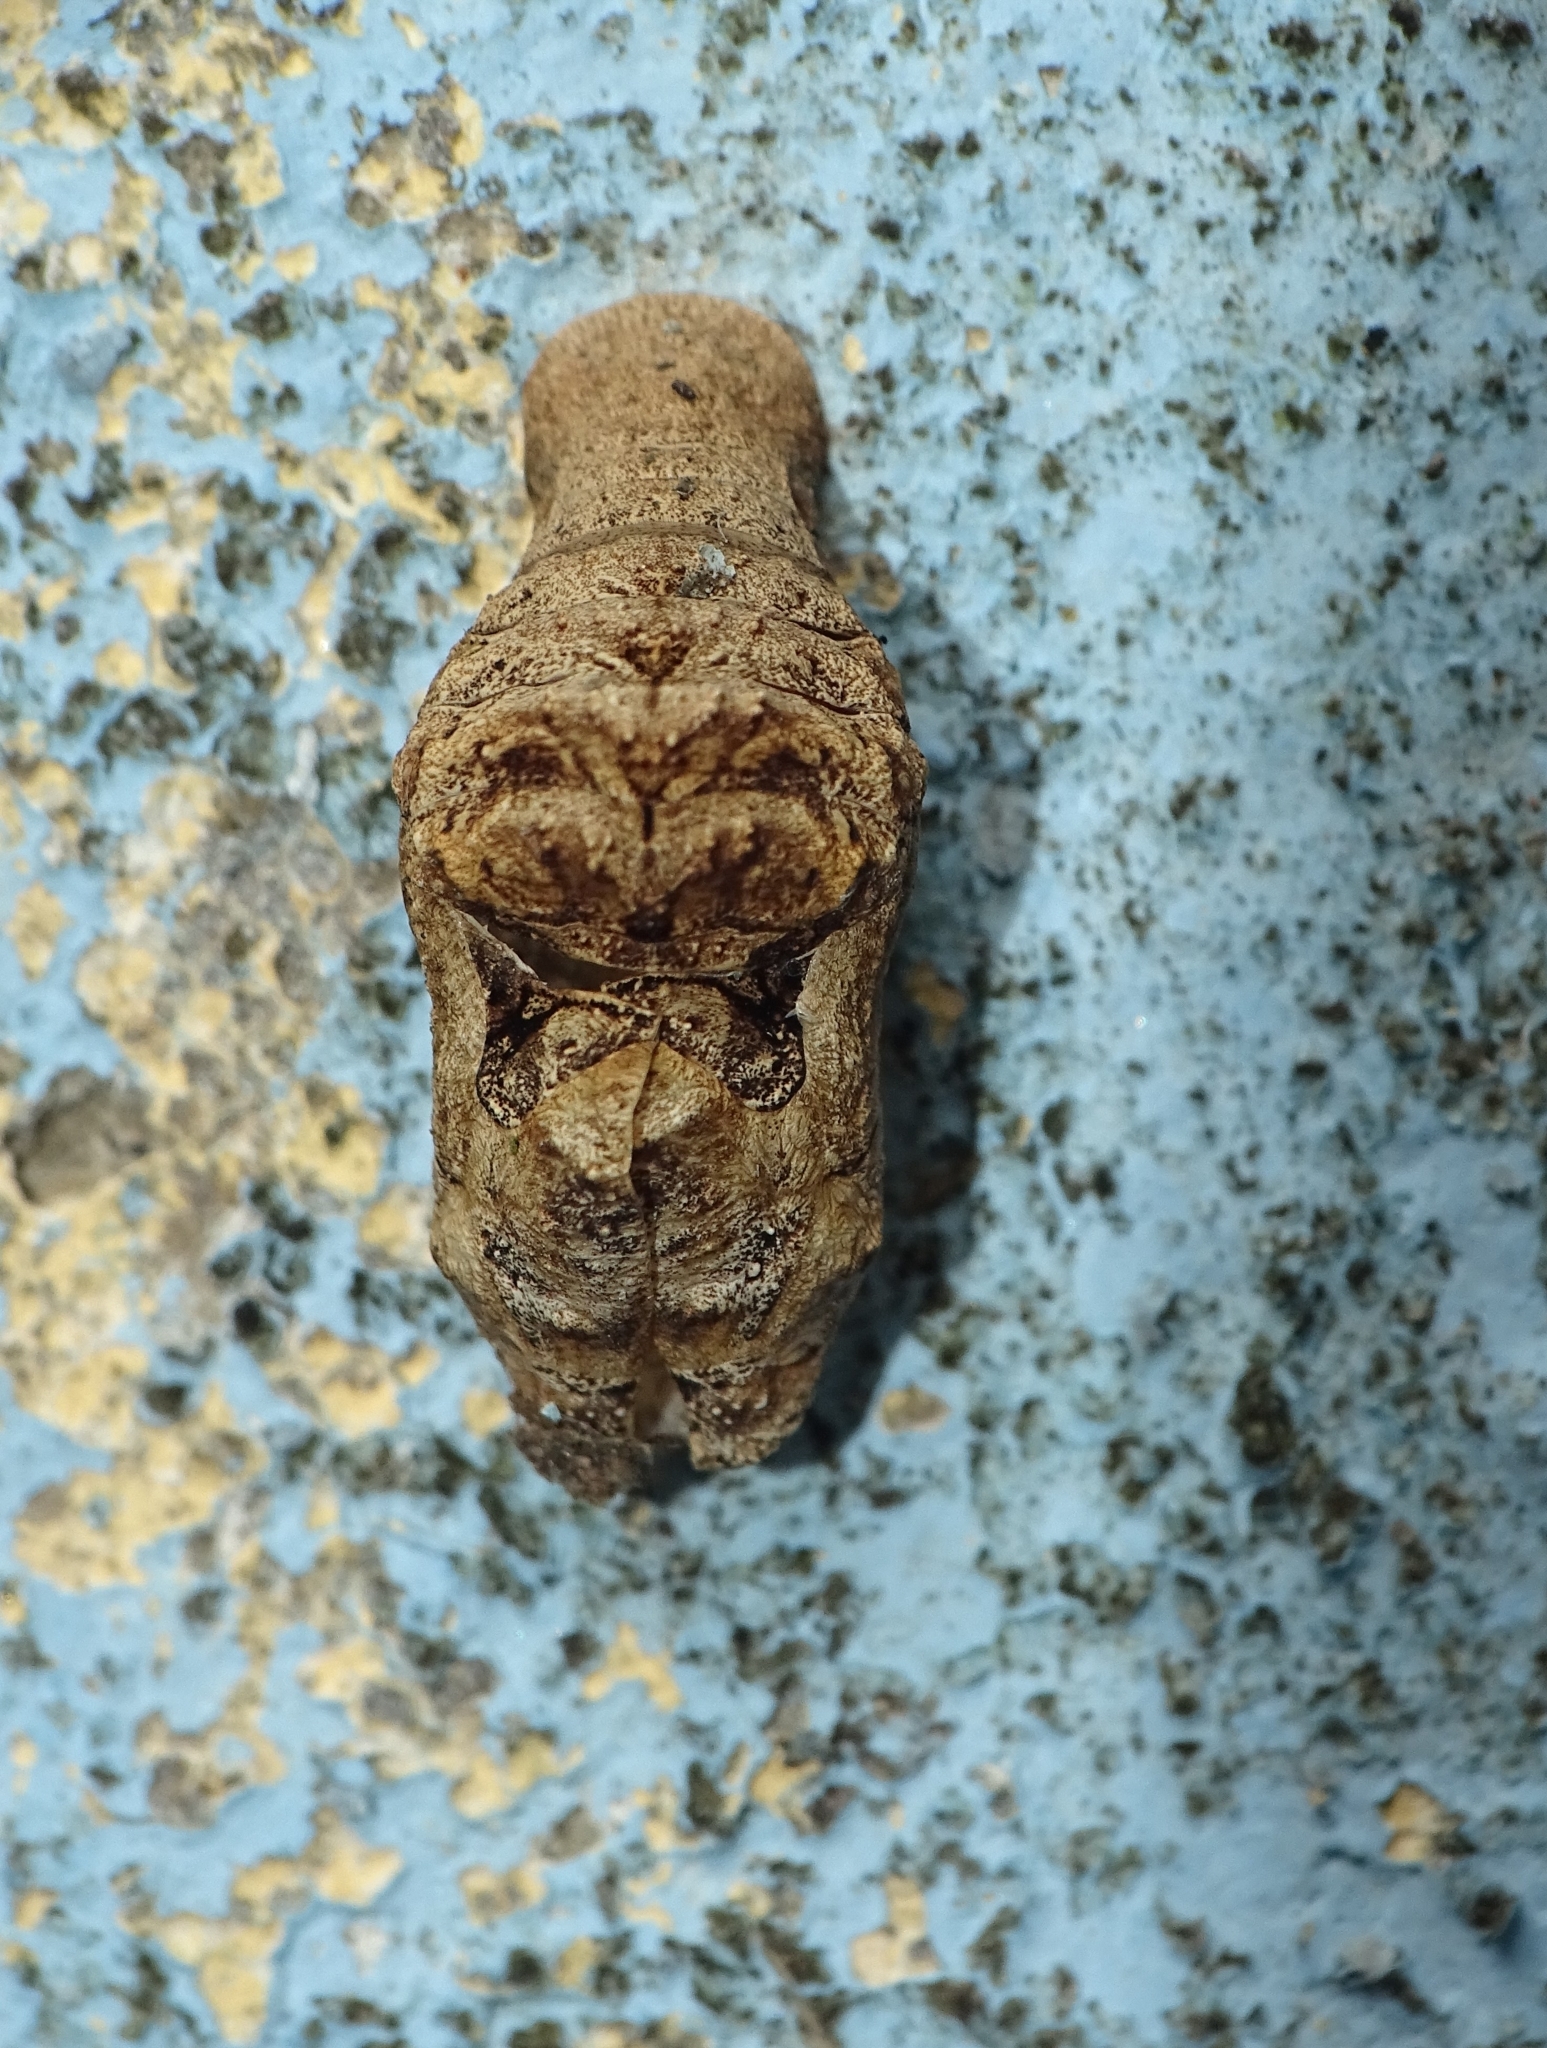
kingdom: Animalia
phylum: Arthropoda
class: Insecta
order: Lepidoptera
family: Lycaenidae
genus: Tajuria
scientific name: Tajuria cippus
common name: Peacock royal
